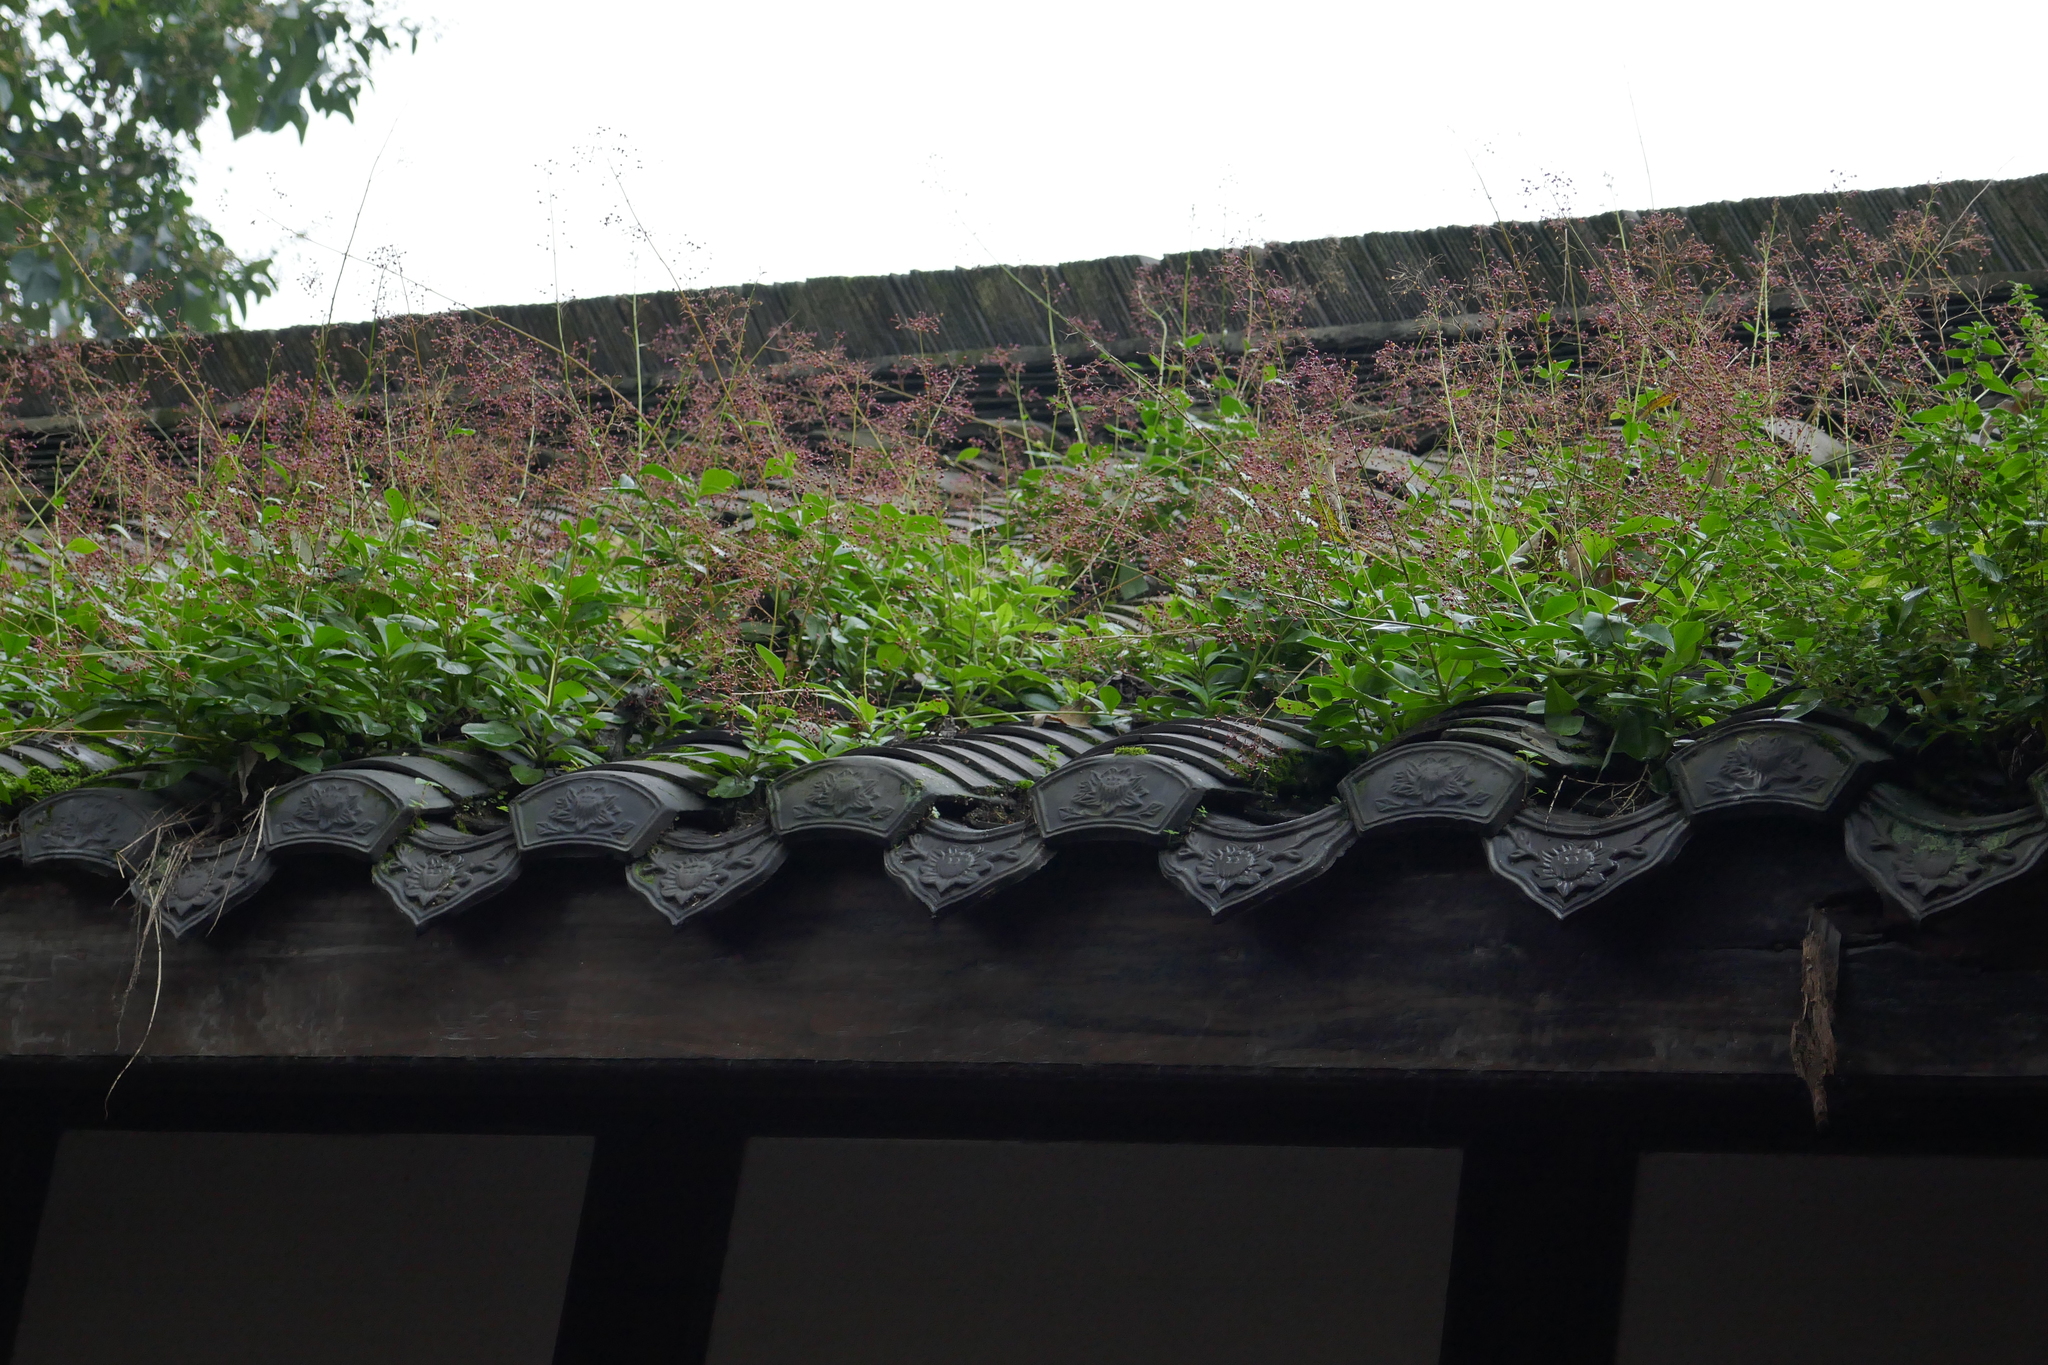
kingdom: Plantae
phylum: Tracheophyta
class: Magnoliopsida
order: Caryophyllales
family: Talinaceae
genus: Talinum
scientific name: Talinum paniculatum
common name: Jewels of opar
